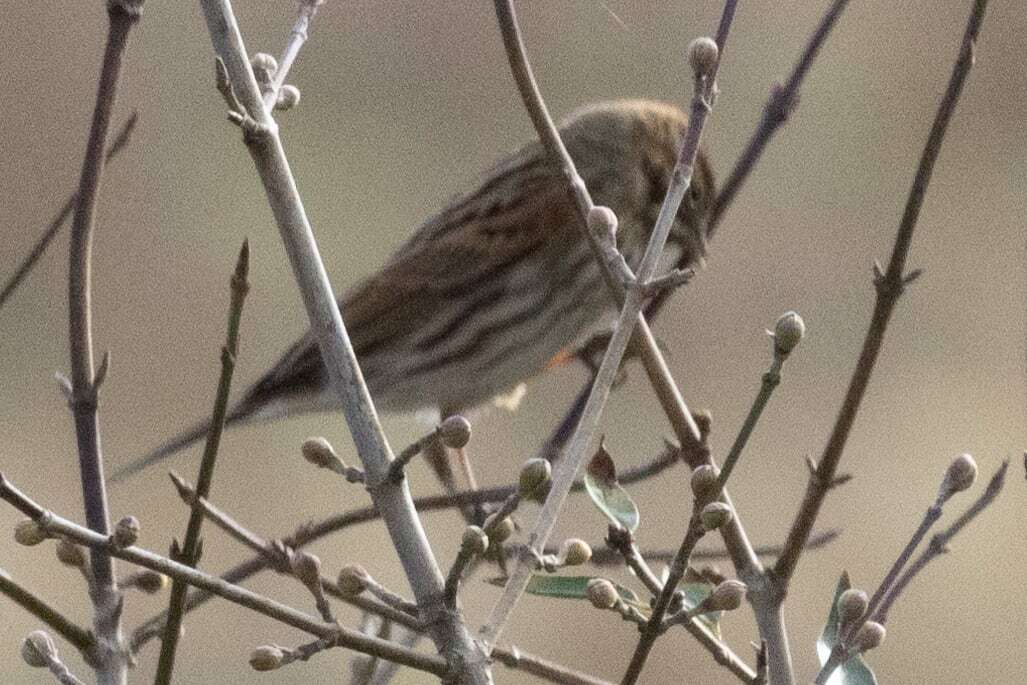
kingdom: Animalia
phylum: Chordata
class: Aves
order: Passeriformes
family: Emberizidae
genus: Emberiza
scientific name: Emberiza schoeniclus
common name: Reed bunting
